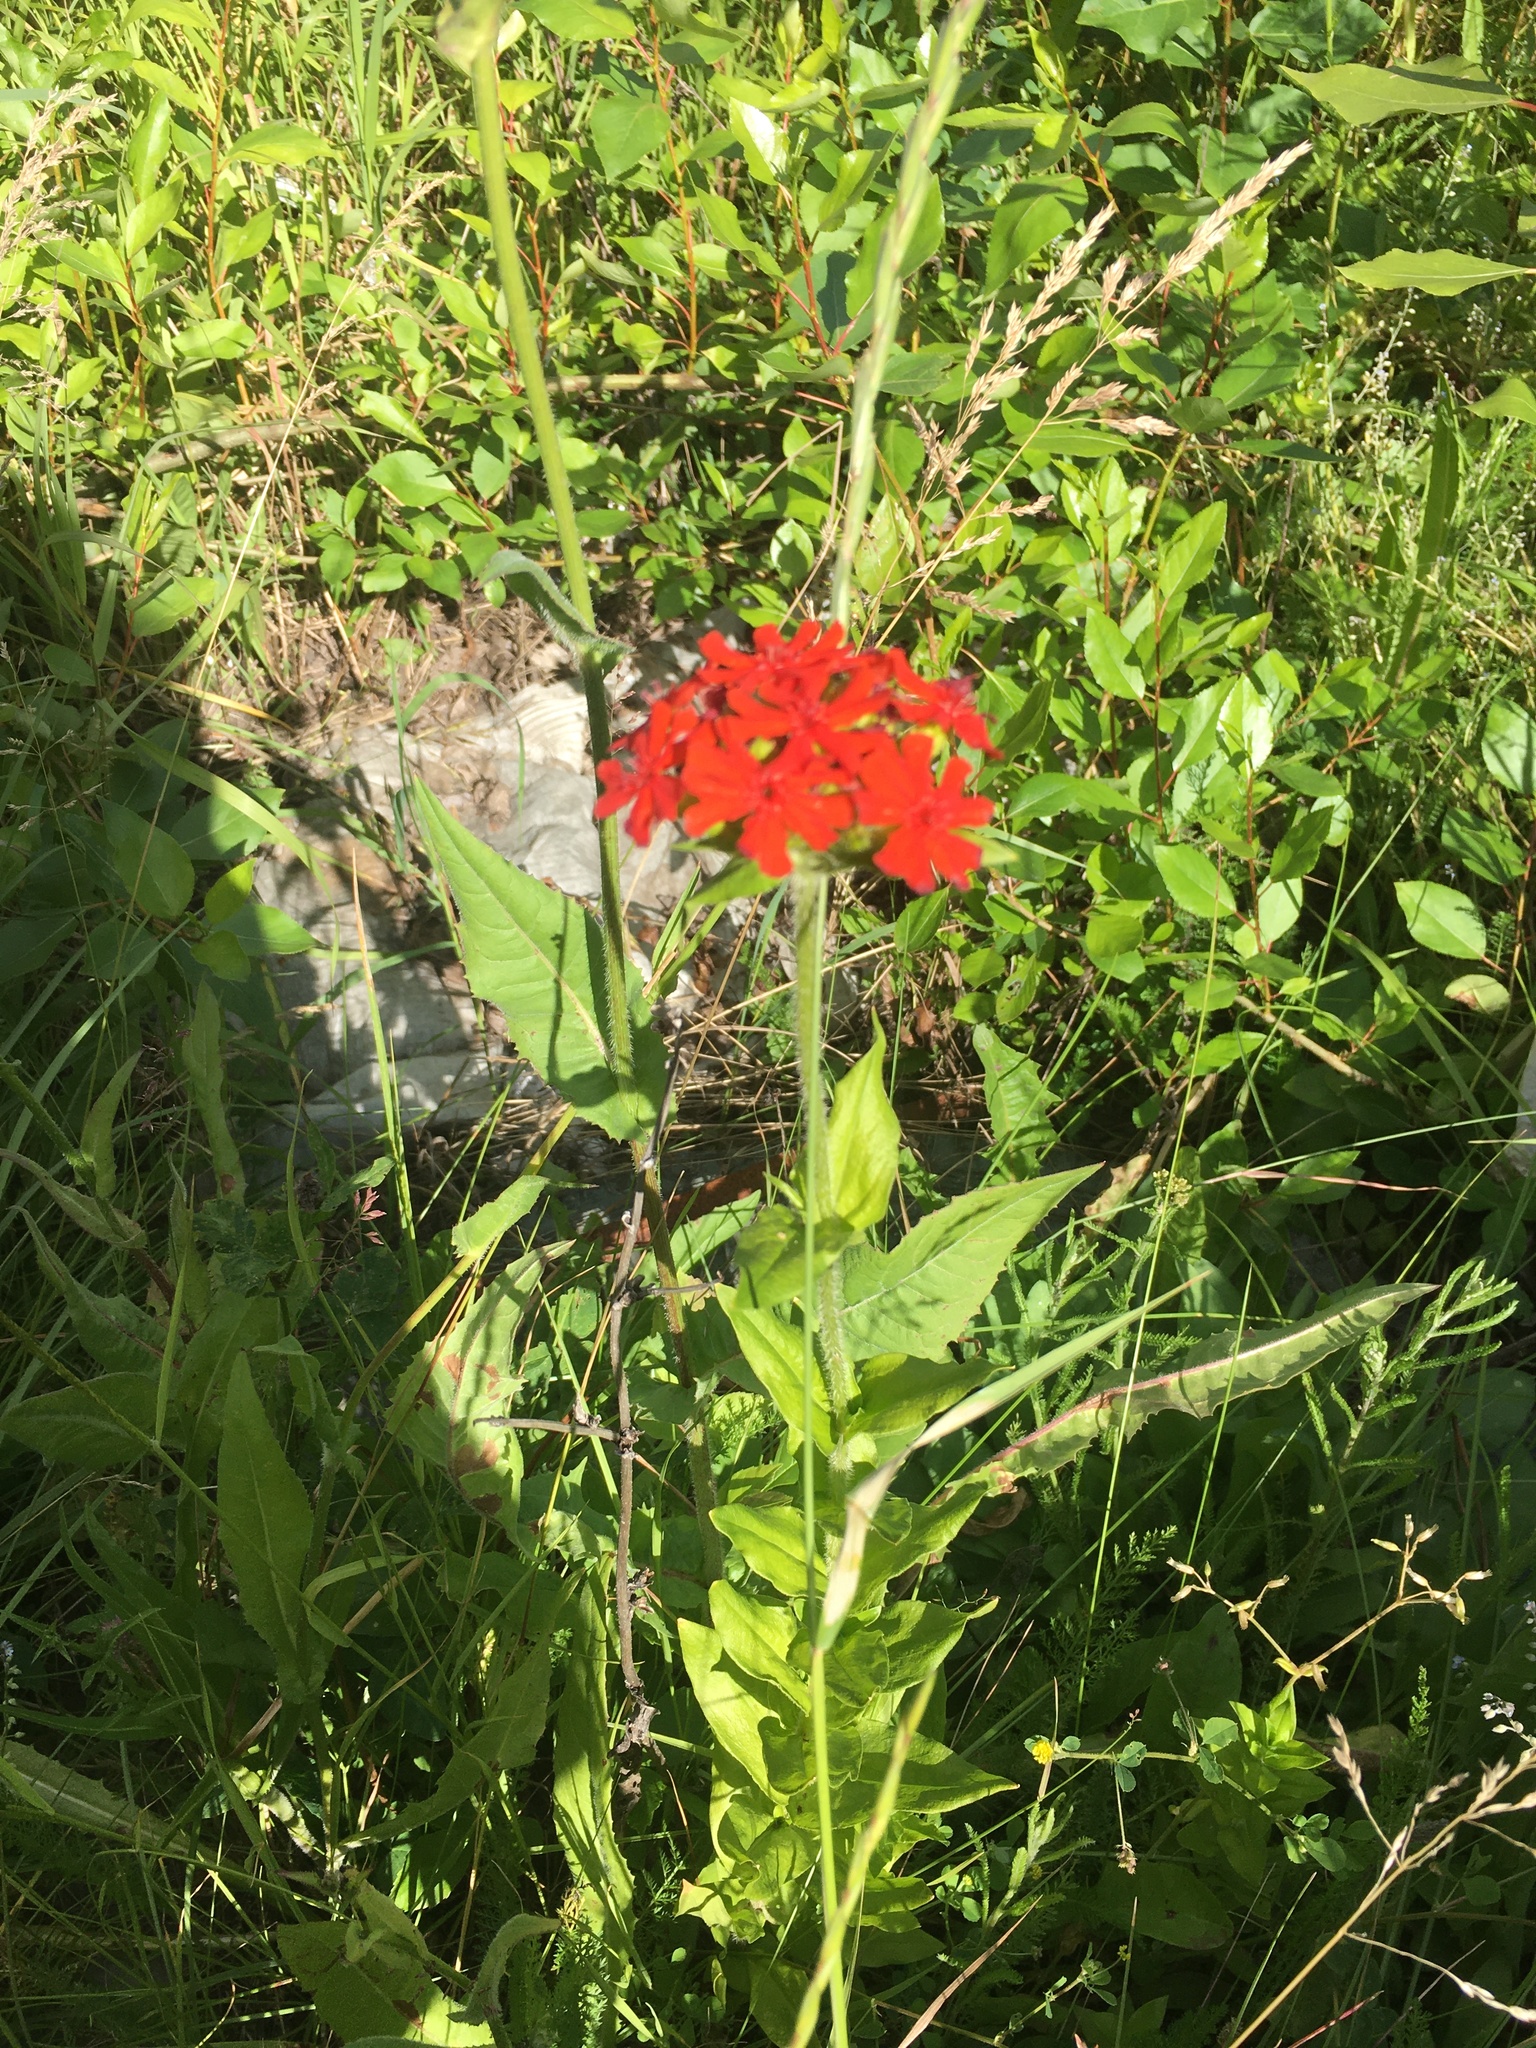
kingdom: Plantae
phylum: Tracheophyta
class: Magnoliopsida
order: Caryophyllales
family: Caryophyllaceae
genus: Silene
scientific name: Silene chalcedonica
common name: Maltese-cross
